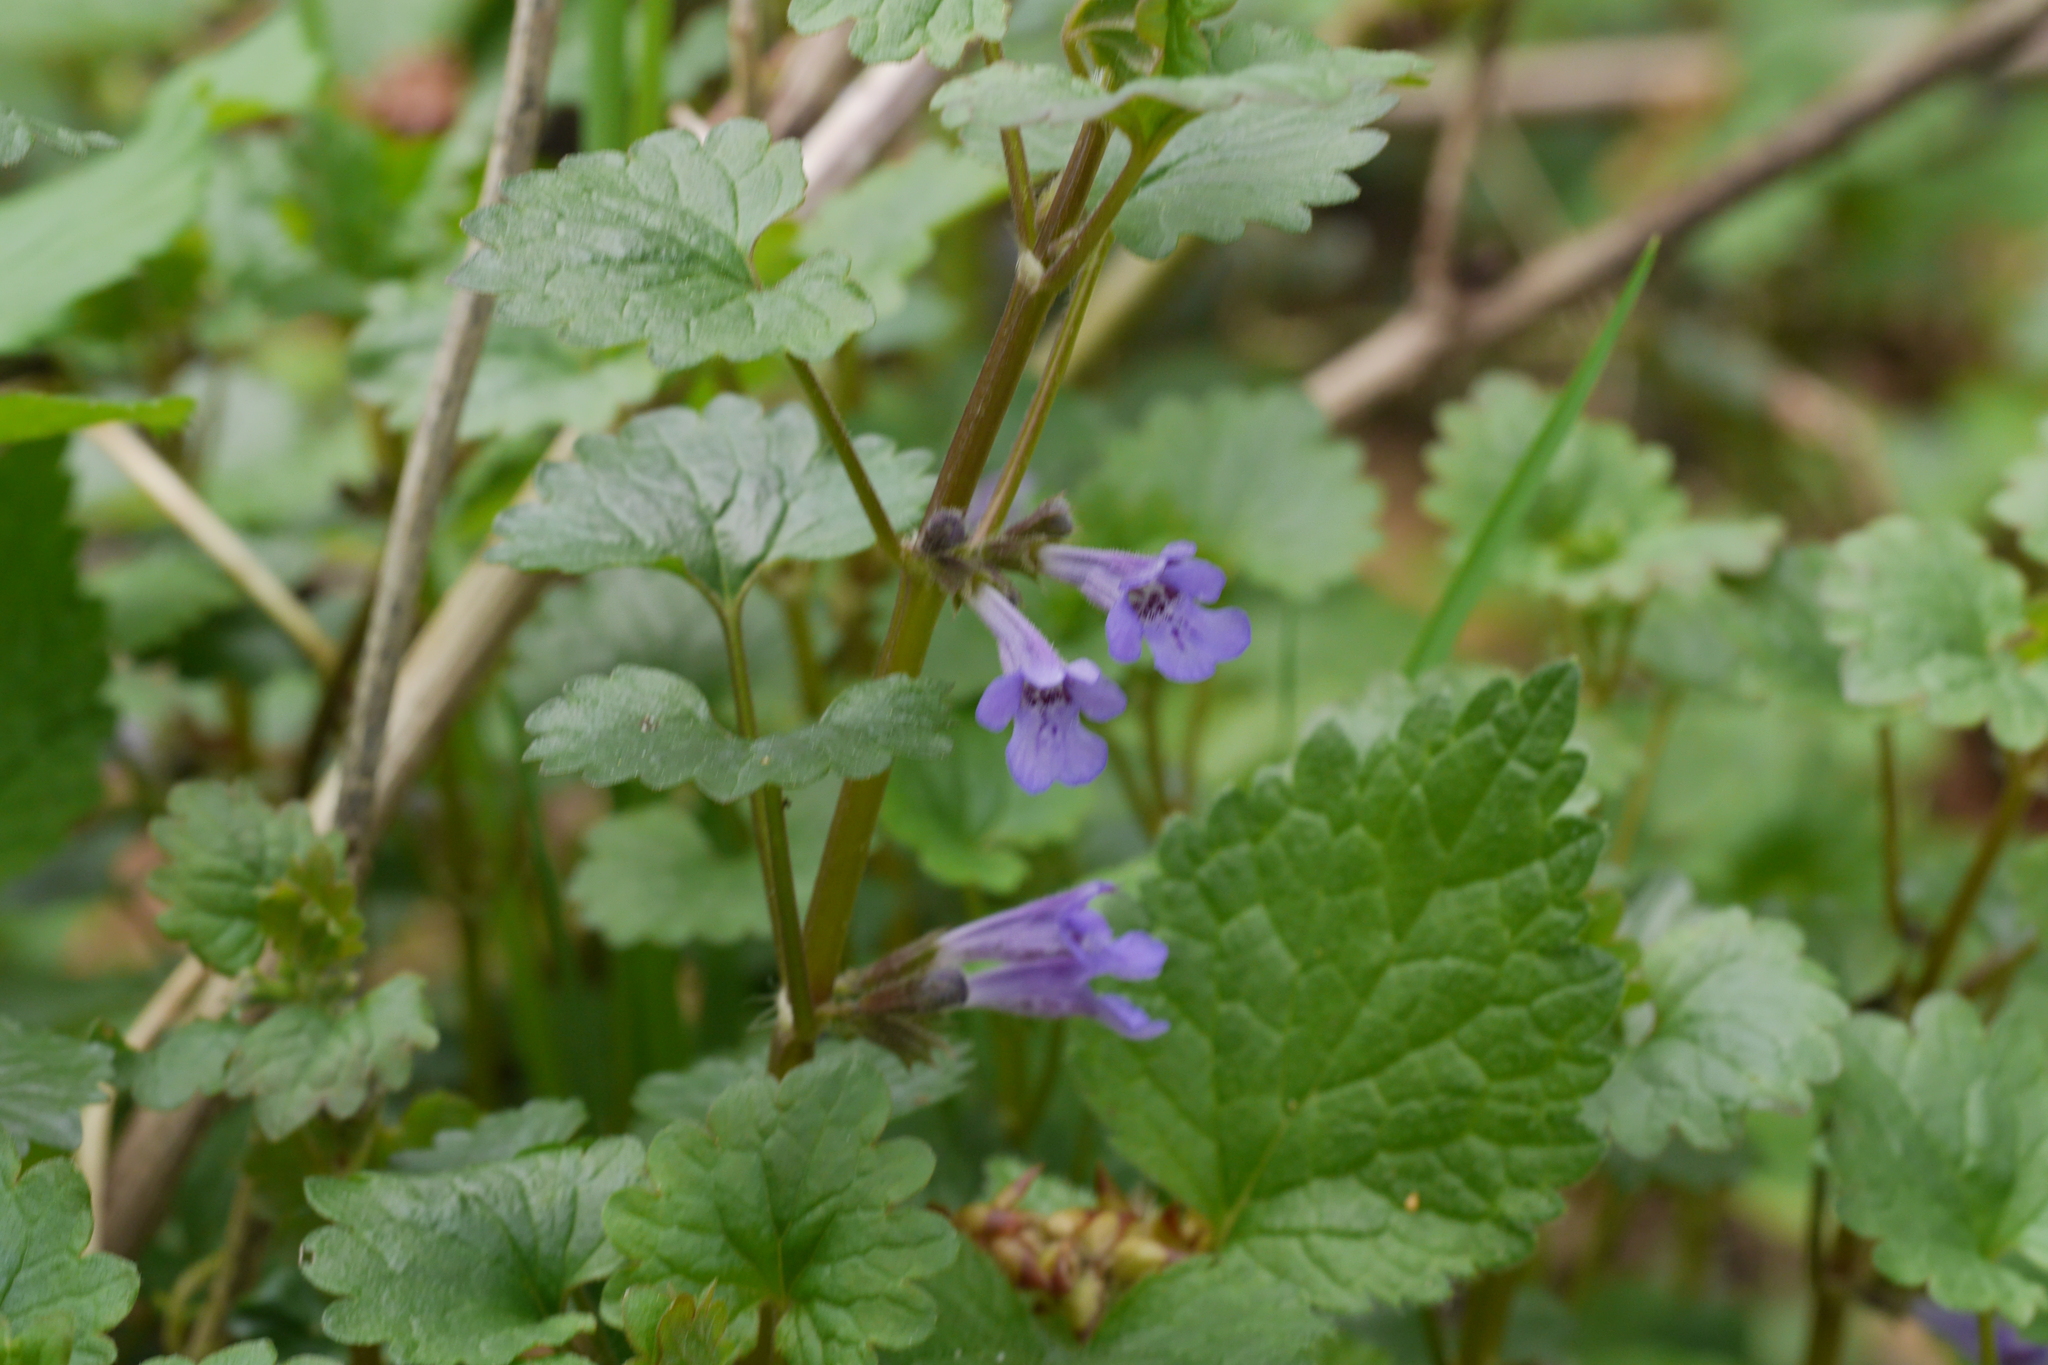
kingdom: Plantae
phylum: Tracheophyta
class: Magnoliopsida
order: Lamiales
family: Lamiaceae
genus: Glechoma
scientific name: Glechoma hederacea
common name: Ground ivy
